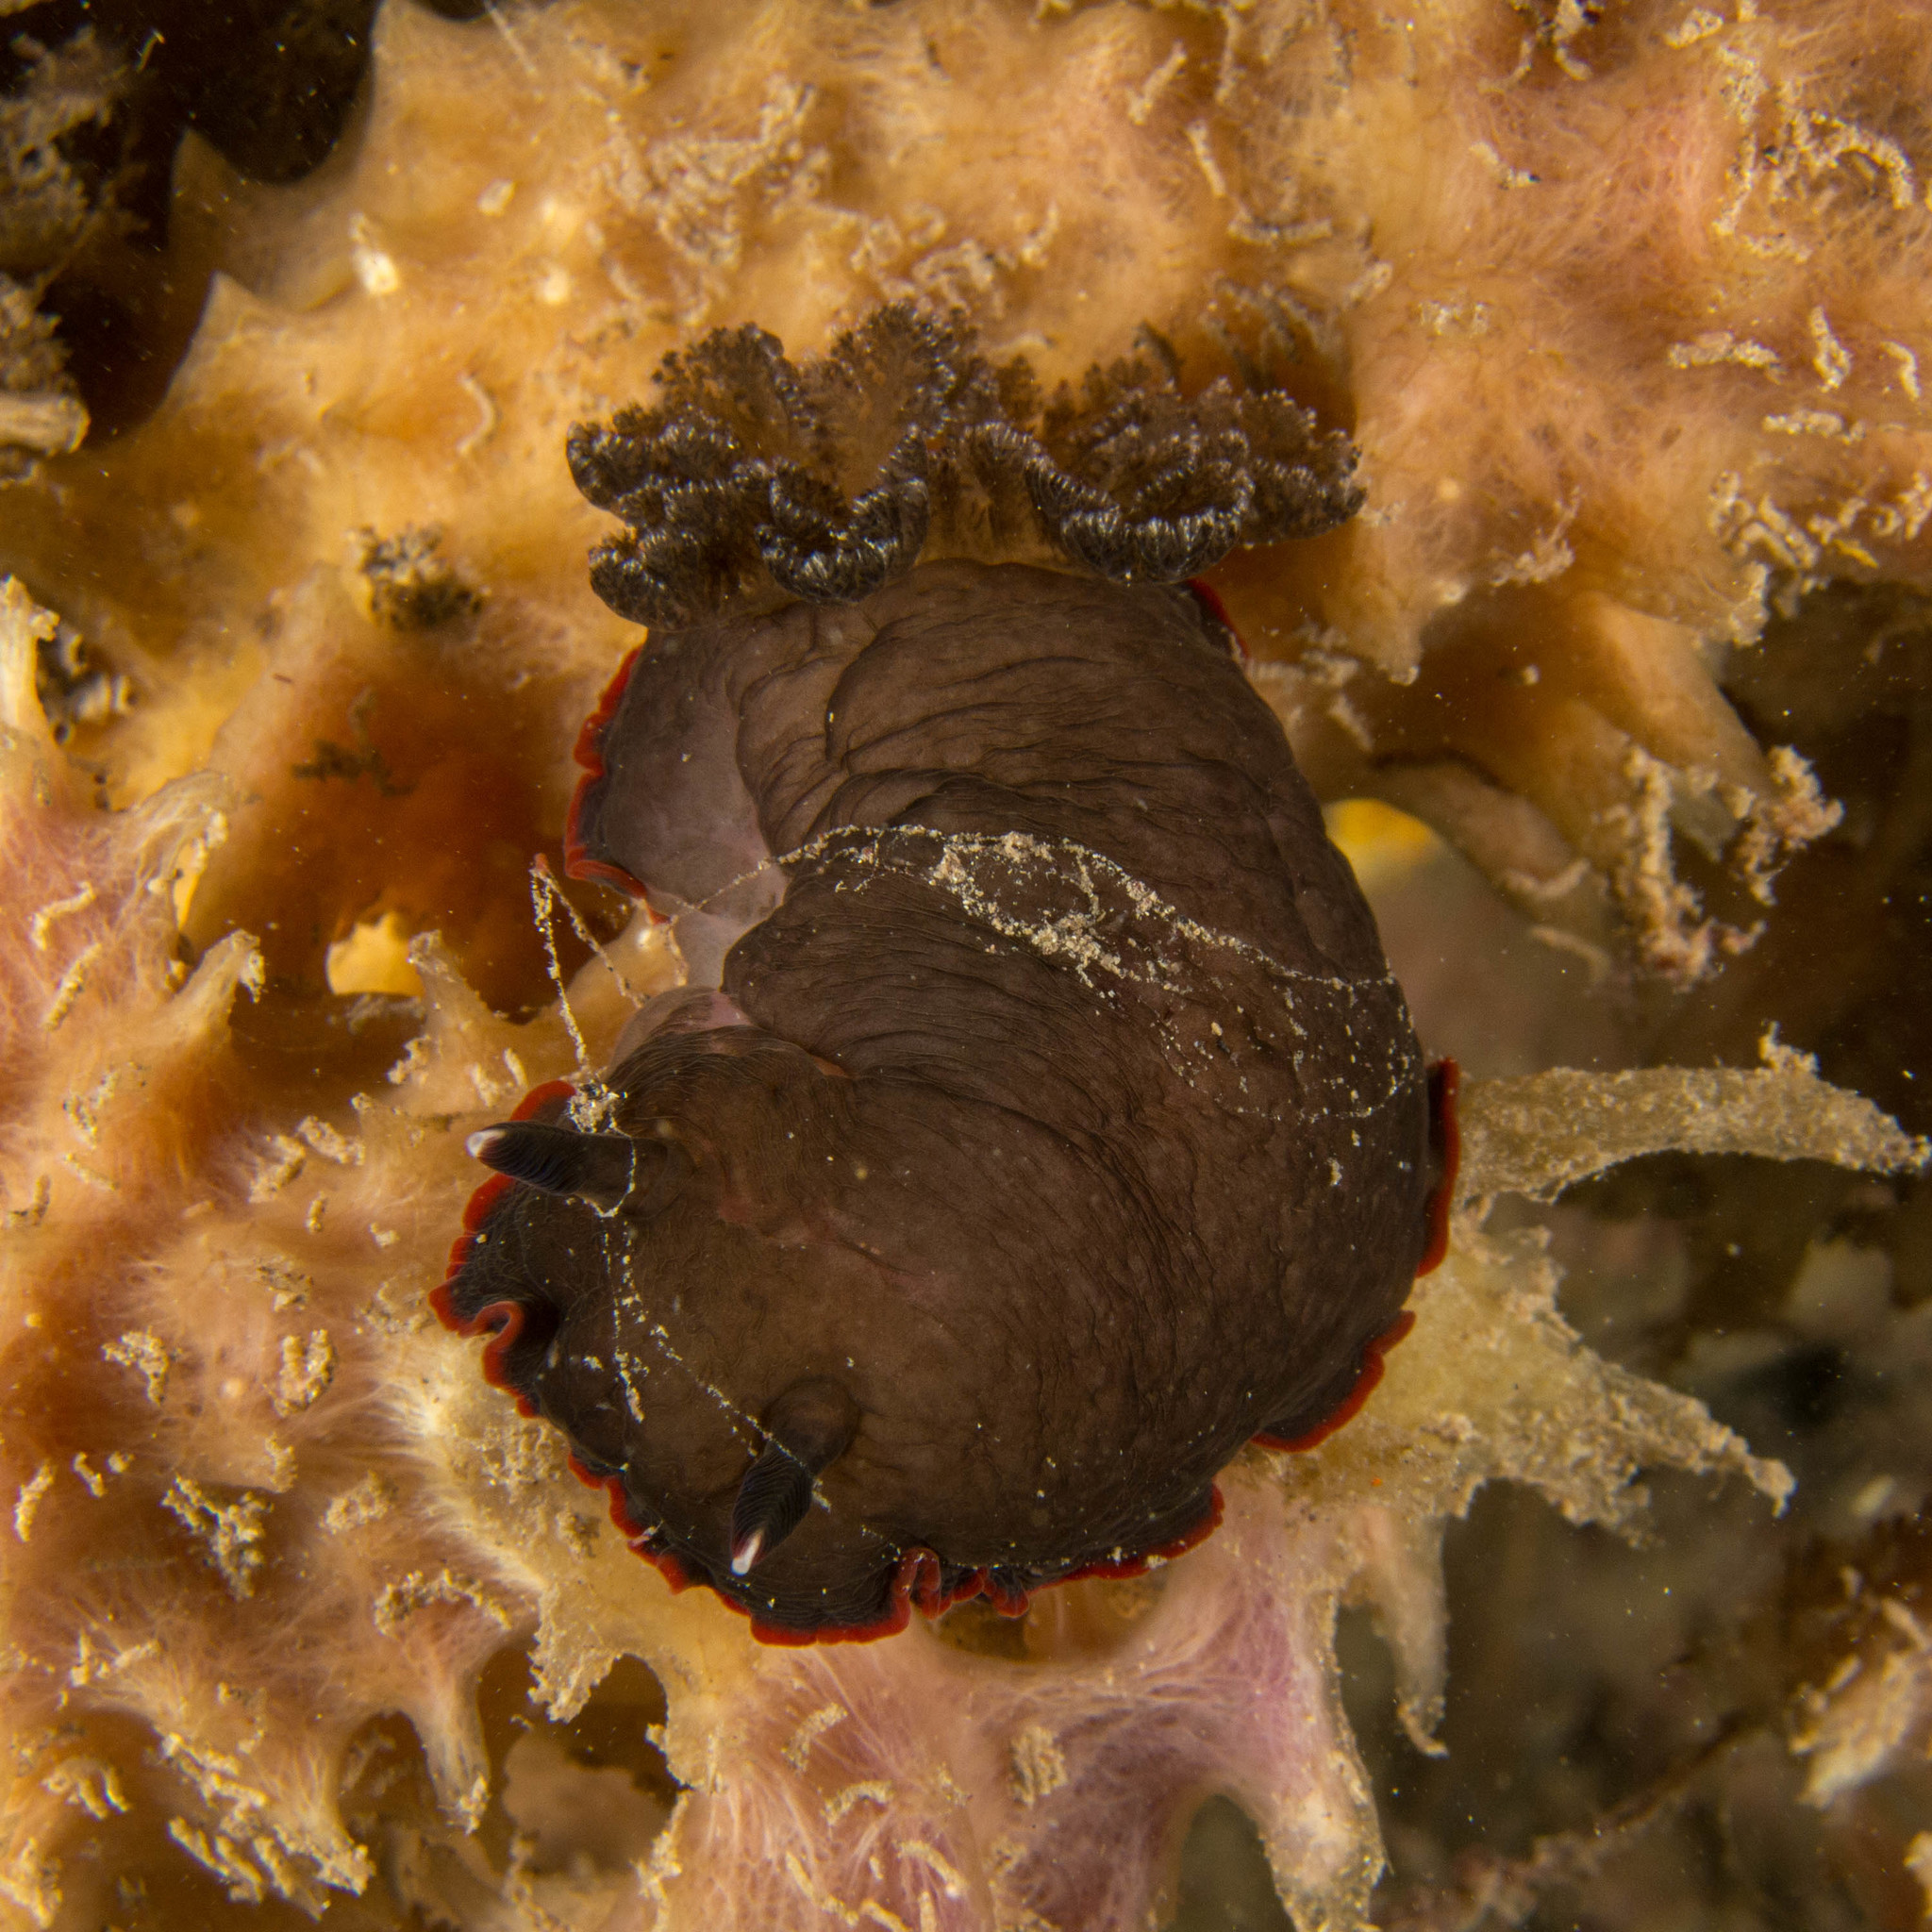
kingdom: Animalia
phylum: Mollusca
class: Gastropoda
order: Nudibranchia
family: Dendrodorididae
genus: Dendrodoris
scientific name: Dendrodoris arborescens
